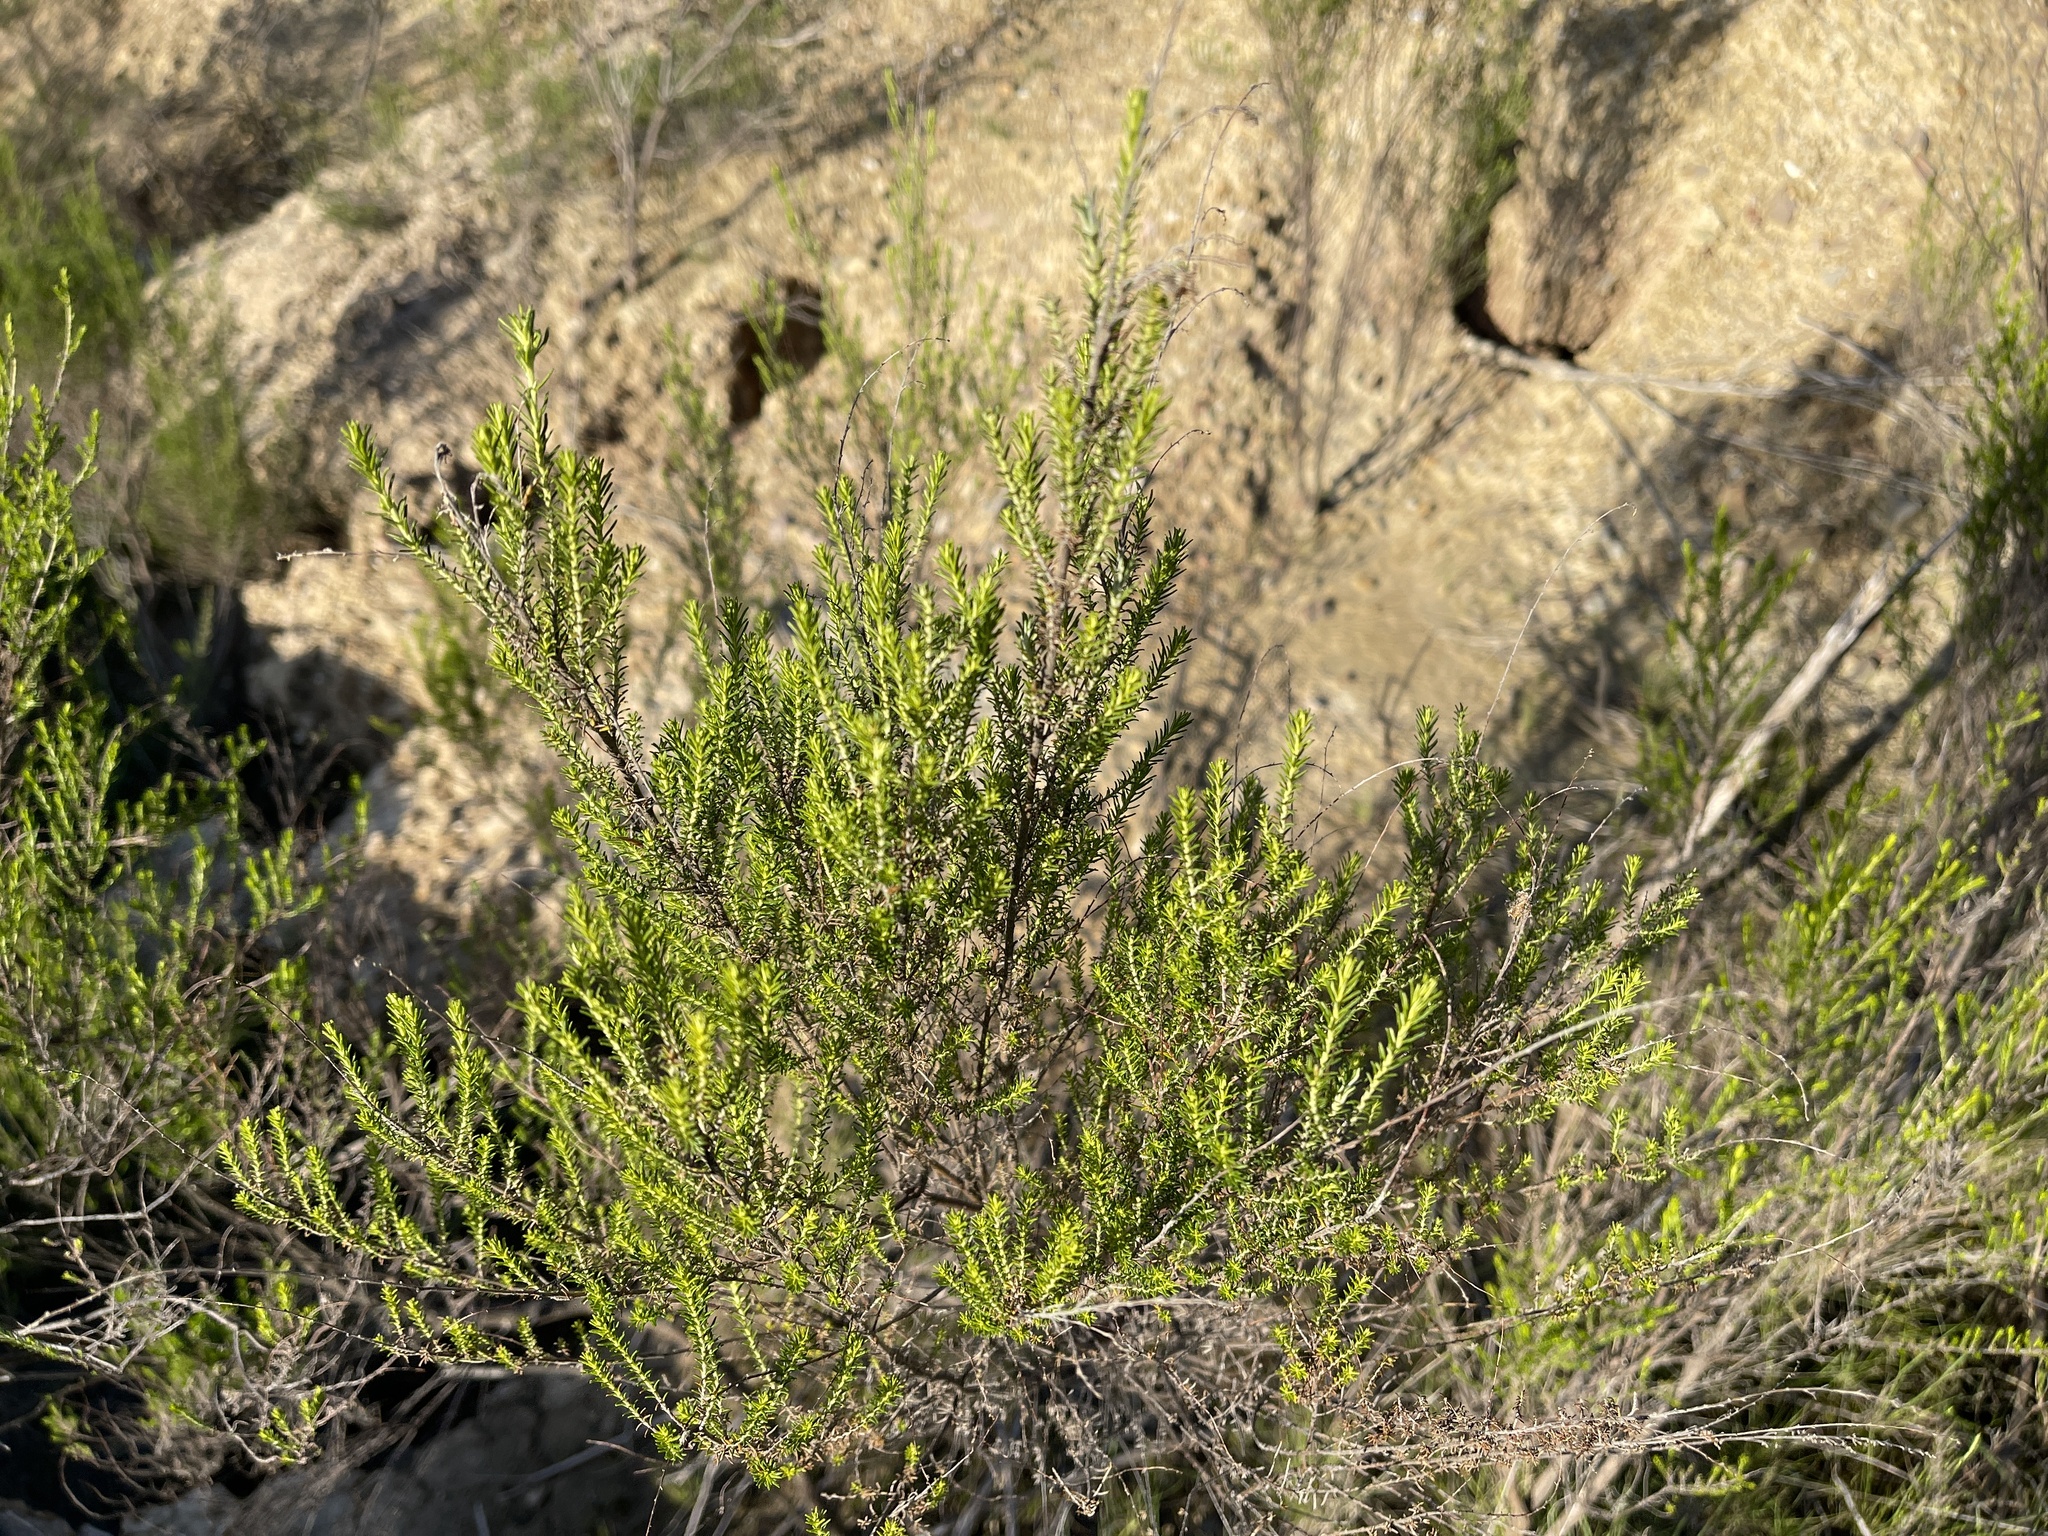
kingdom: Plantae
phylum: Tracheophyta
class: Magnoliopsida
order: Asterales
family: Asteraceae
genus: Cassinia
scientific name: Cassinia sifton
